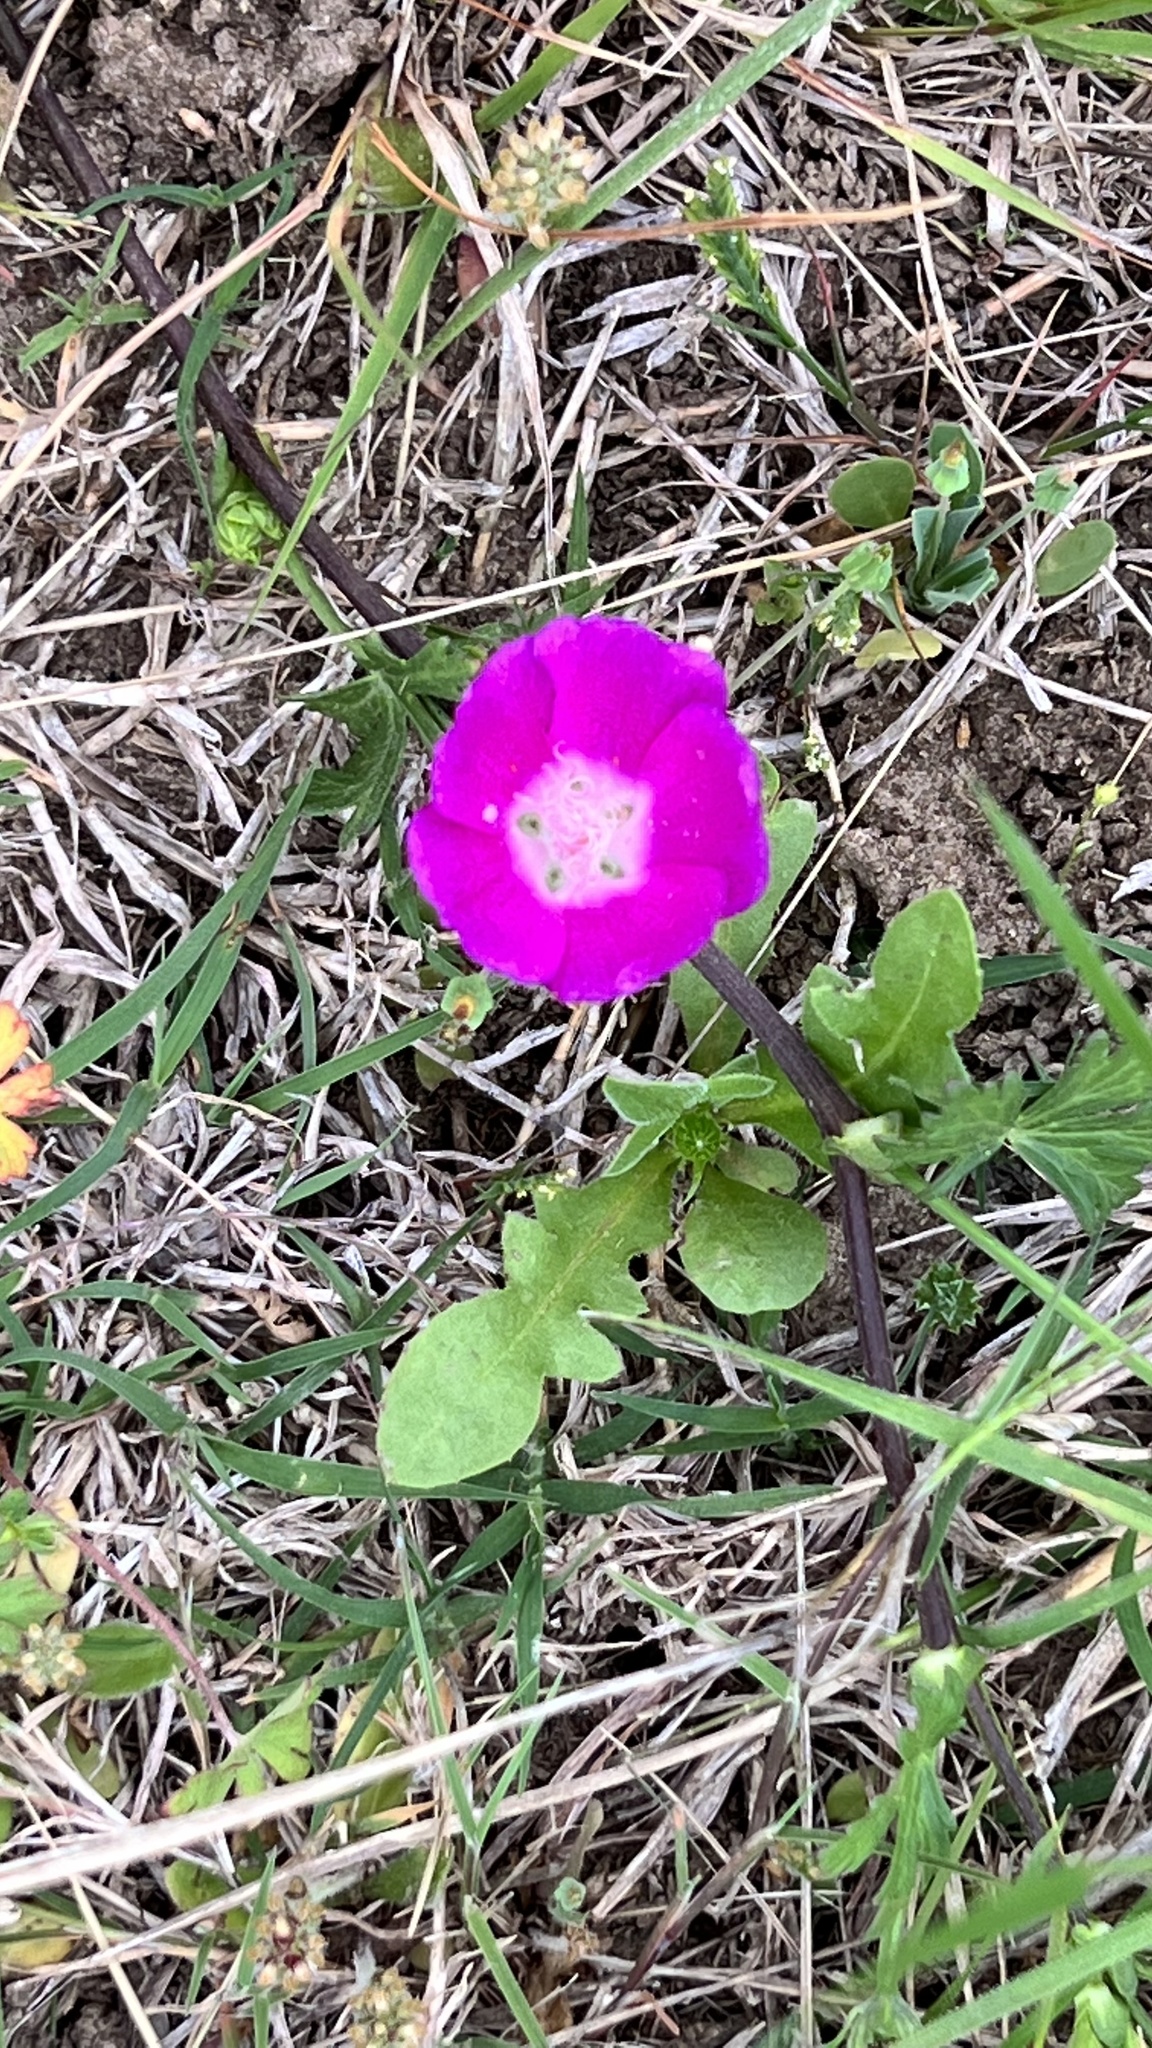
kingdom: Plantae
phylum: Tracheophyta
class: Magnoliopsida
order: Malvales
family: Malvaceae
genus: Callirhoe
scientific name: Callirhoe involucrata
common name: Purple poppy-mallow
